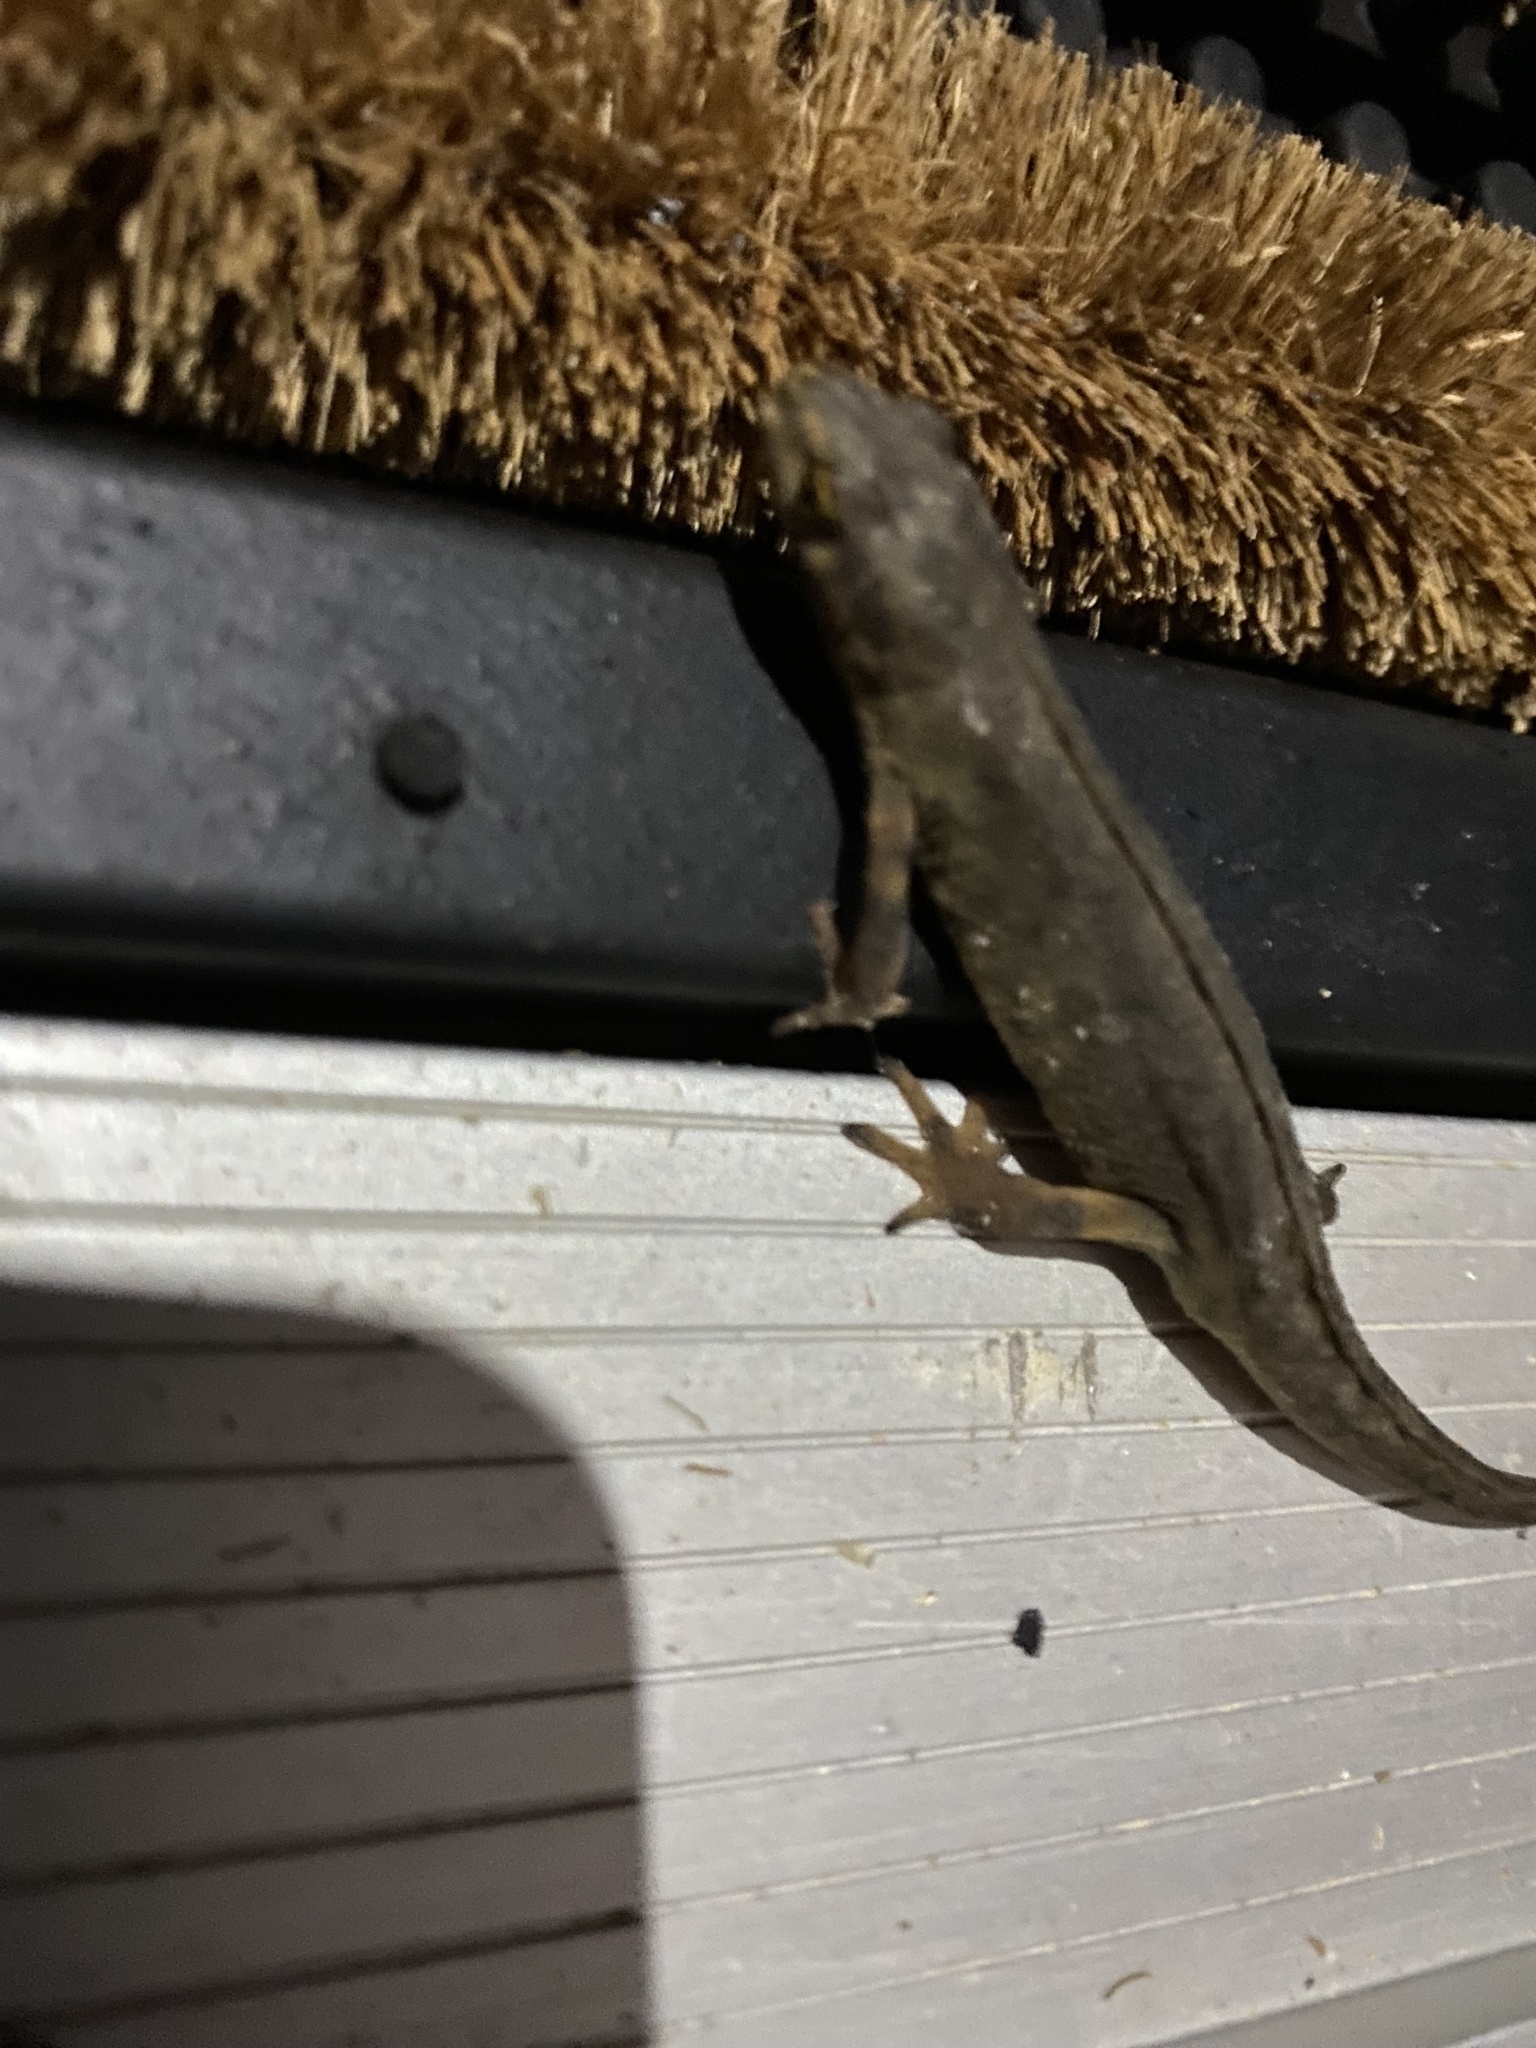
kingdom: Animalia
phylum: Chordata
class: Amphibia
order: Caudata
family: Salamandridae
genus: Lissotriton
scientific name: Lissotriton vulgaris
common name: Smooth newt
